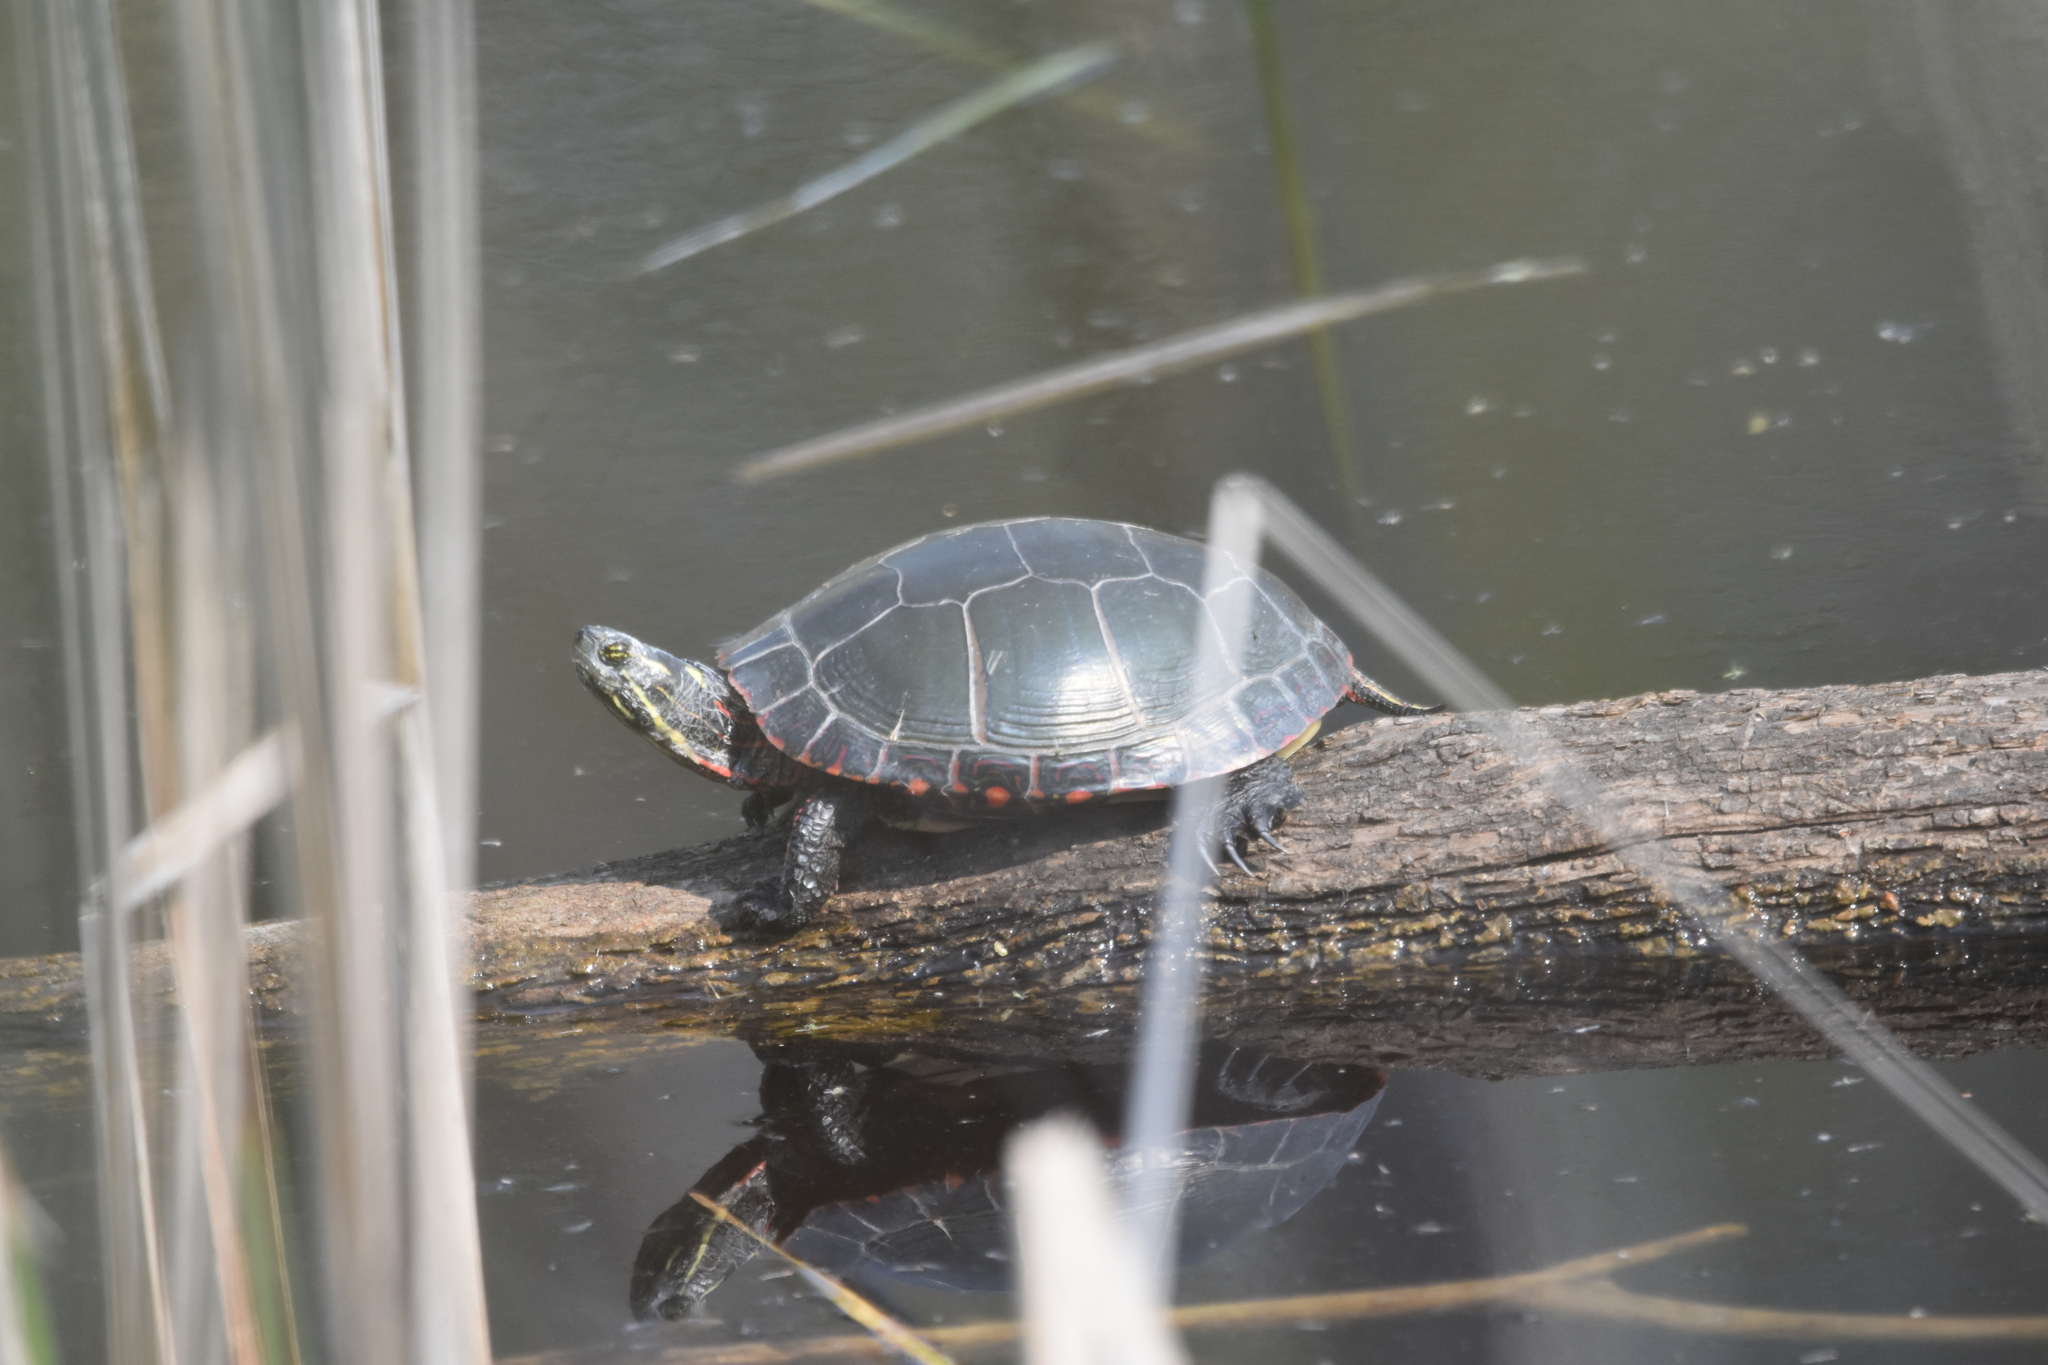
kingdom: Animalia
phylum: Chordata
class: Testudines
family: Emydidae
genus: Chrysemys
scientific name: Chrysemys picta
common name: Painted turtle
